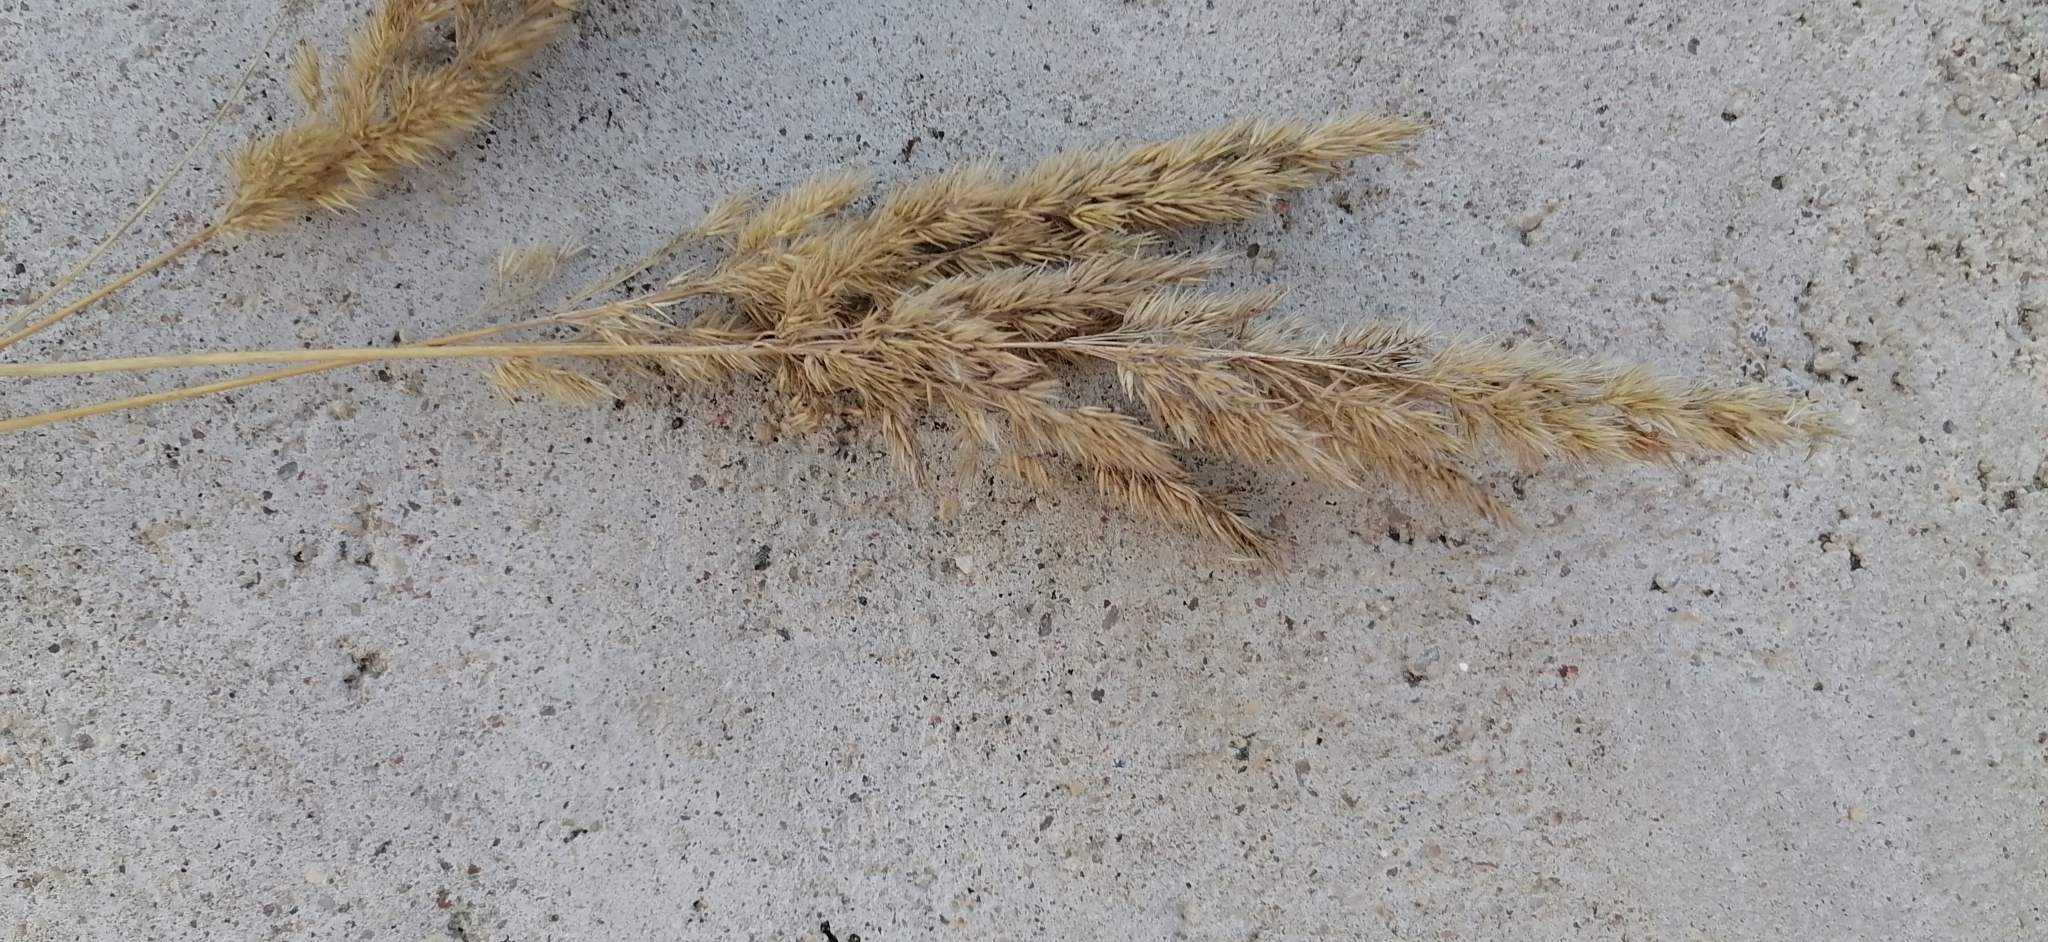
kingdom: Plantae
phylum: Tracheophyta
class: Liliopsida
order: Poales
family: Poaceae
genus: Calamagrostis
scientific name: Calamagrostis epigejos
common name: Wood small-reed
